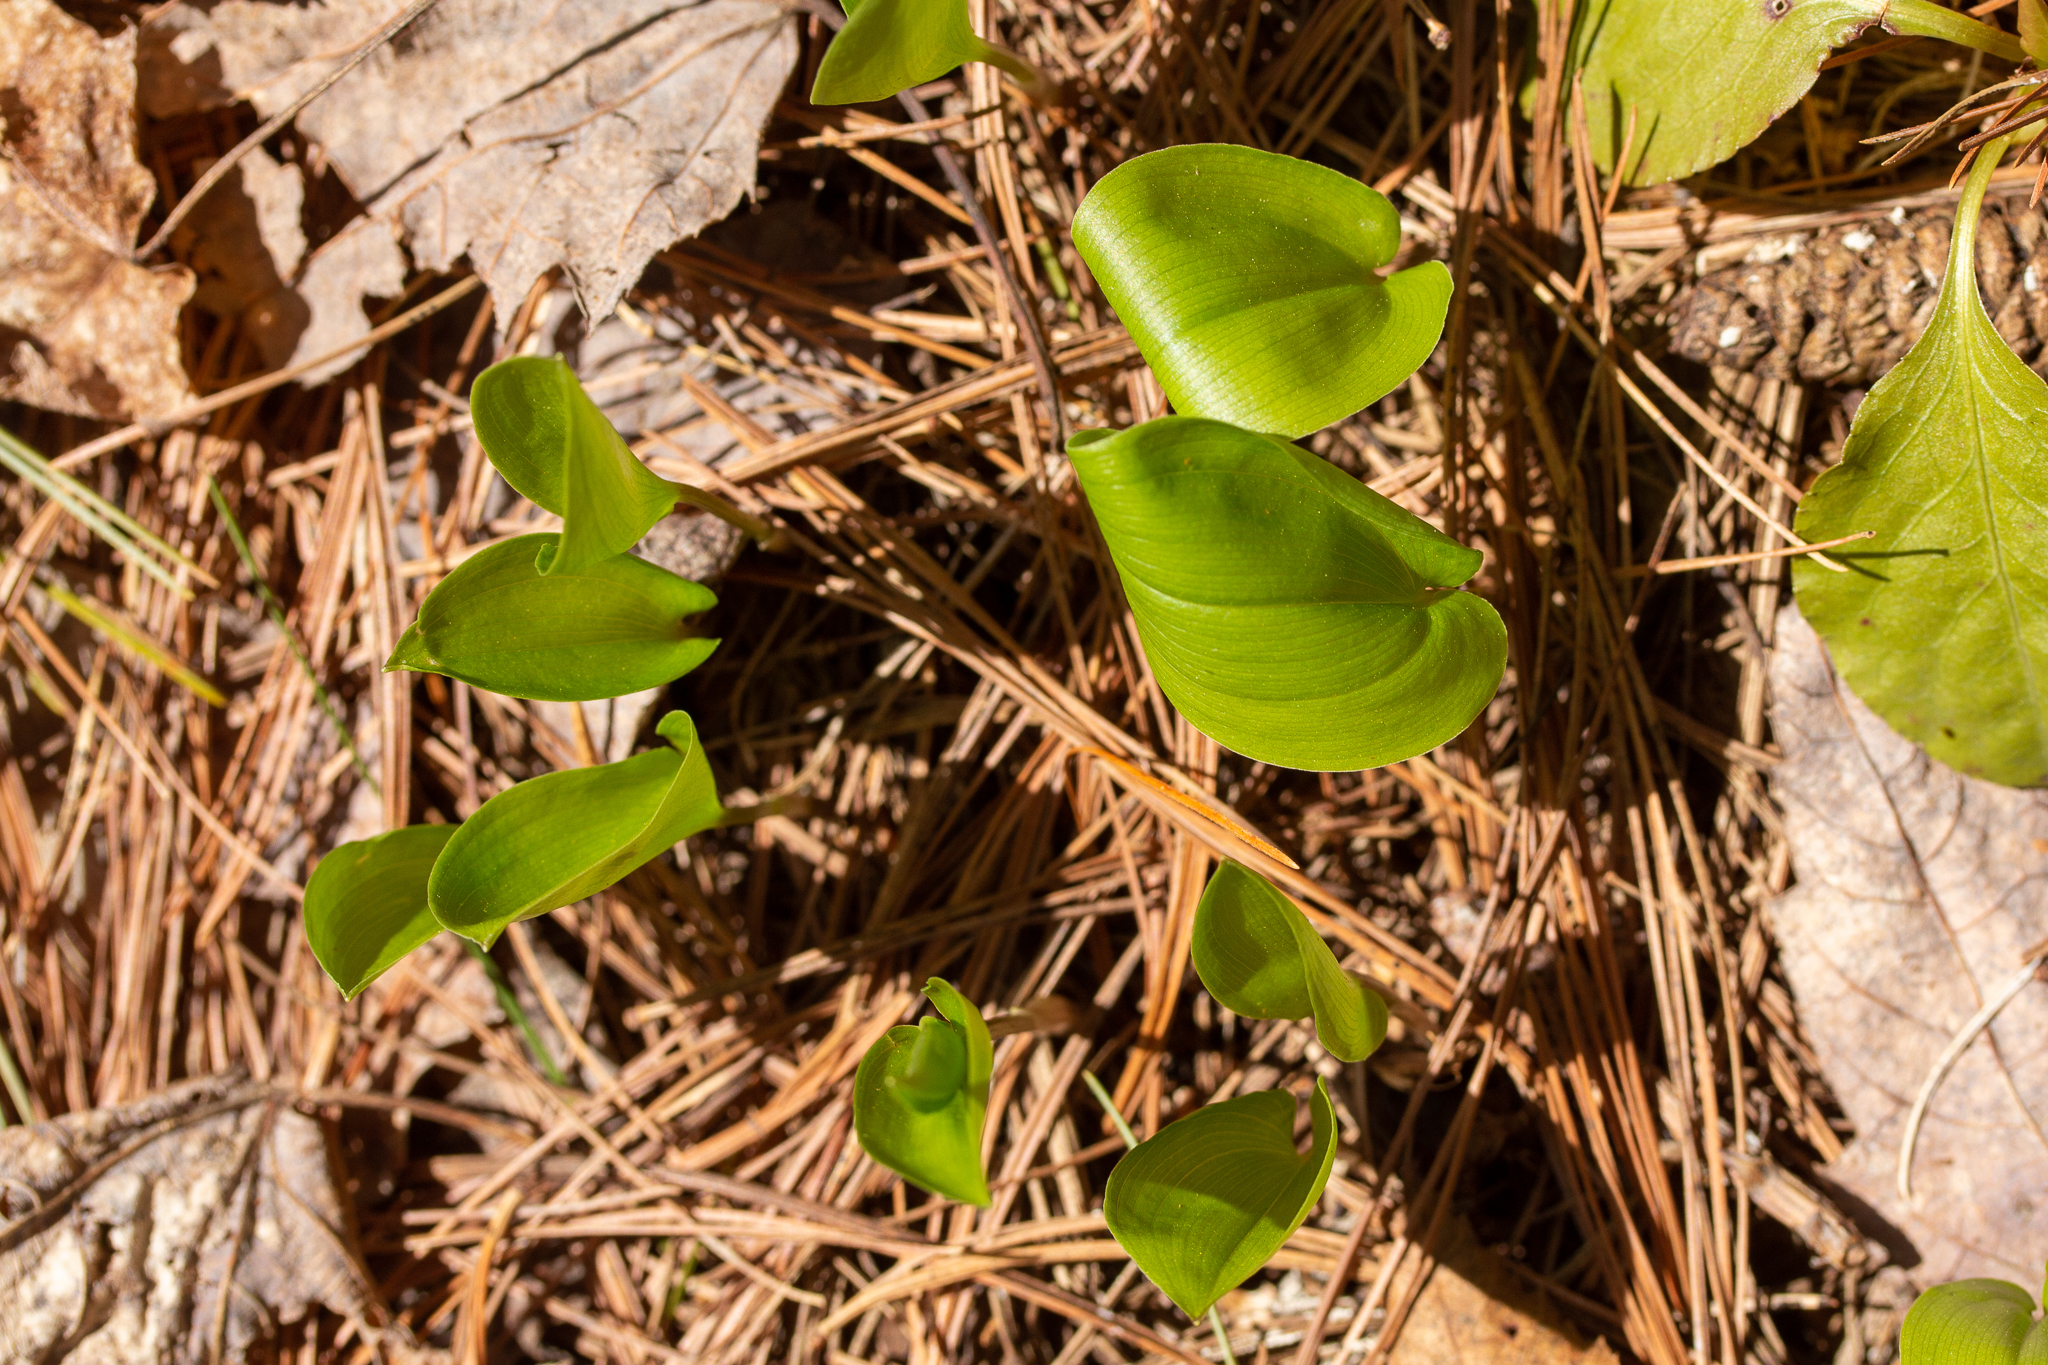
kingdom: Plantae
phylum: Tracheophyta
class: Liliopsida
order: Asparagales
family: Asparagaceae
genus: Maianthemum
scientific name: Maianthemum canadense
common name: False lily-of-the-valley
